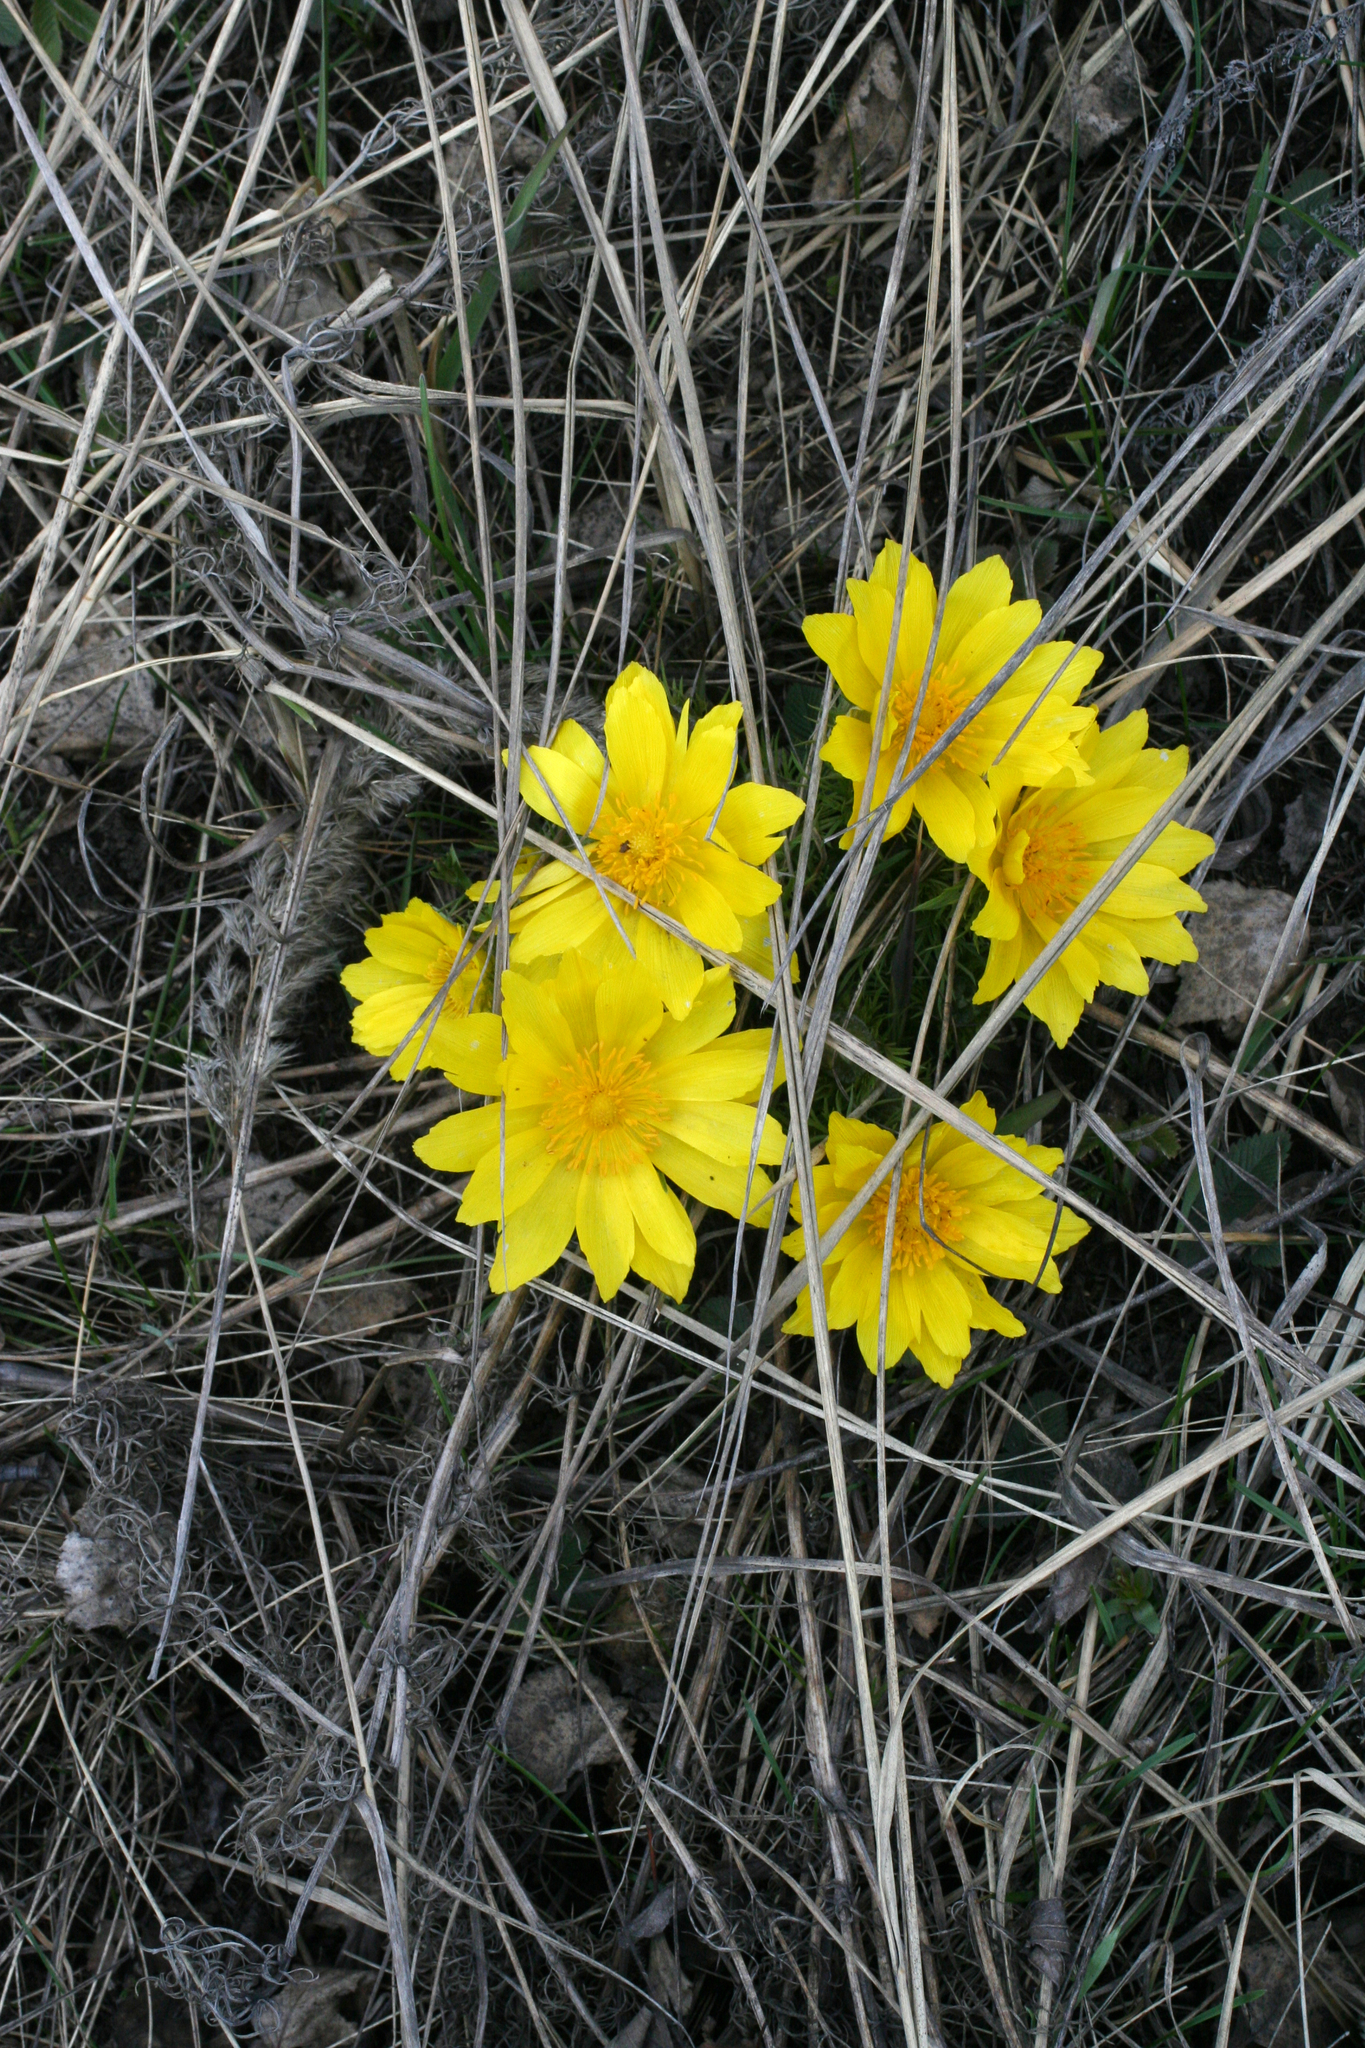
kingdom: Plantae
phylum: Tracheophyta
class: Magnoliopsida
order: Ranunculales
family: Ranunculaceae
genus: Adonis
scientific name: Adonis vernalis
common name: Yellow pheasants-eye
